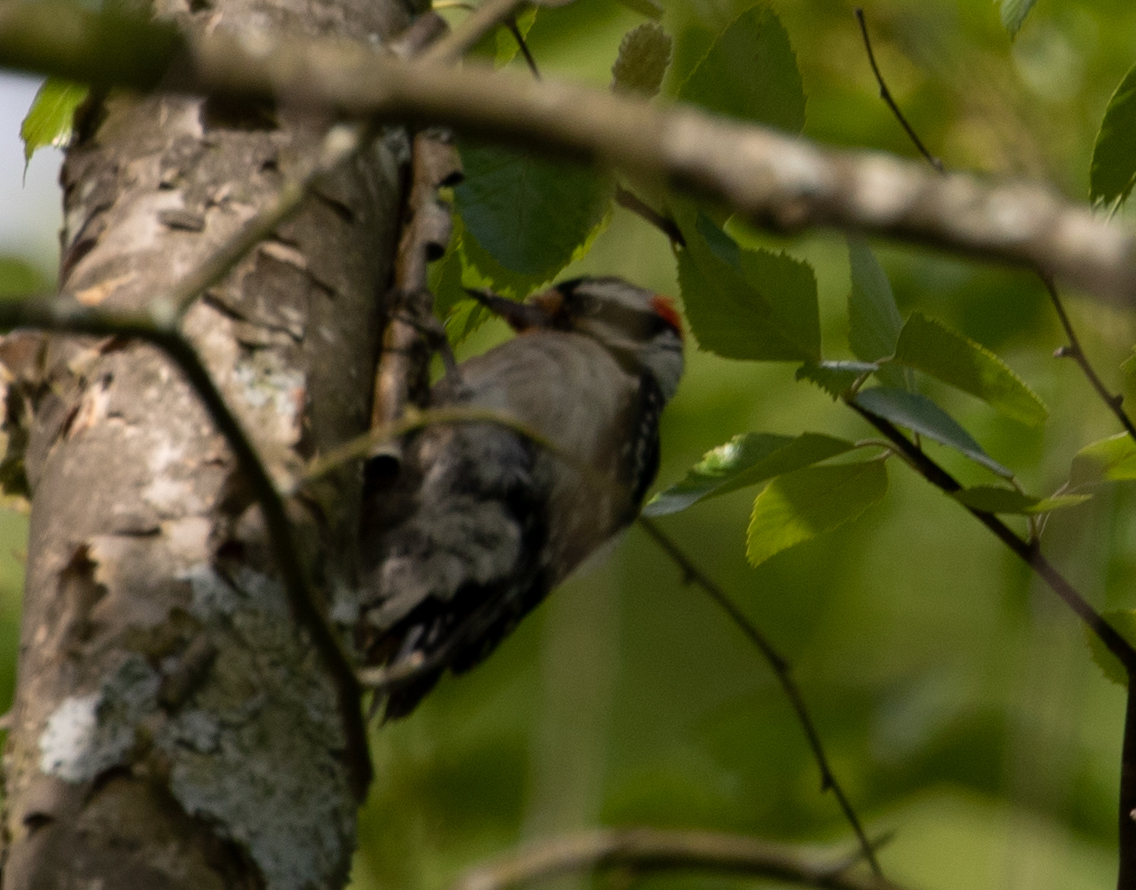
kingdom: Animalia
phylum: Chordata
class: Aves
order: Piciformes
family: Picidae
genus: Dryobates
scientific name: Dryobates pubescens
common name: Downy woodpecker
